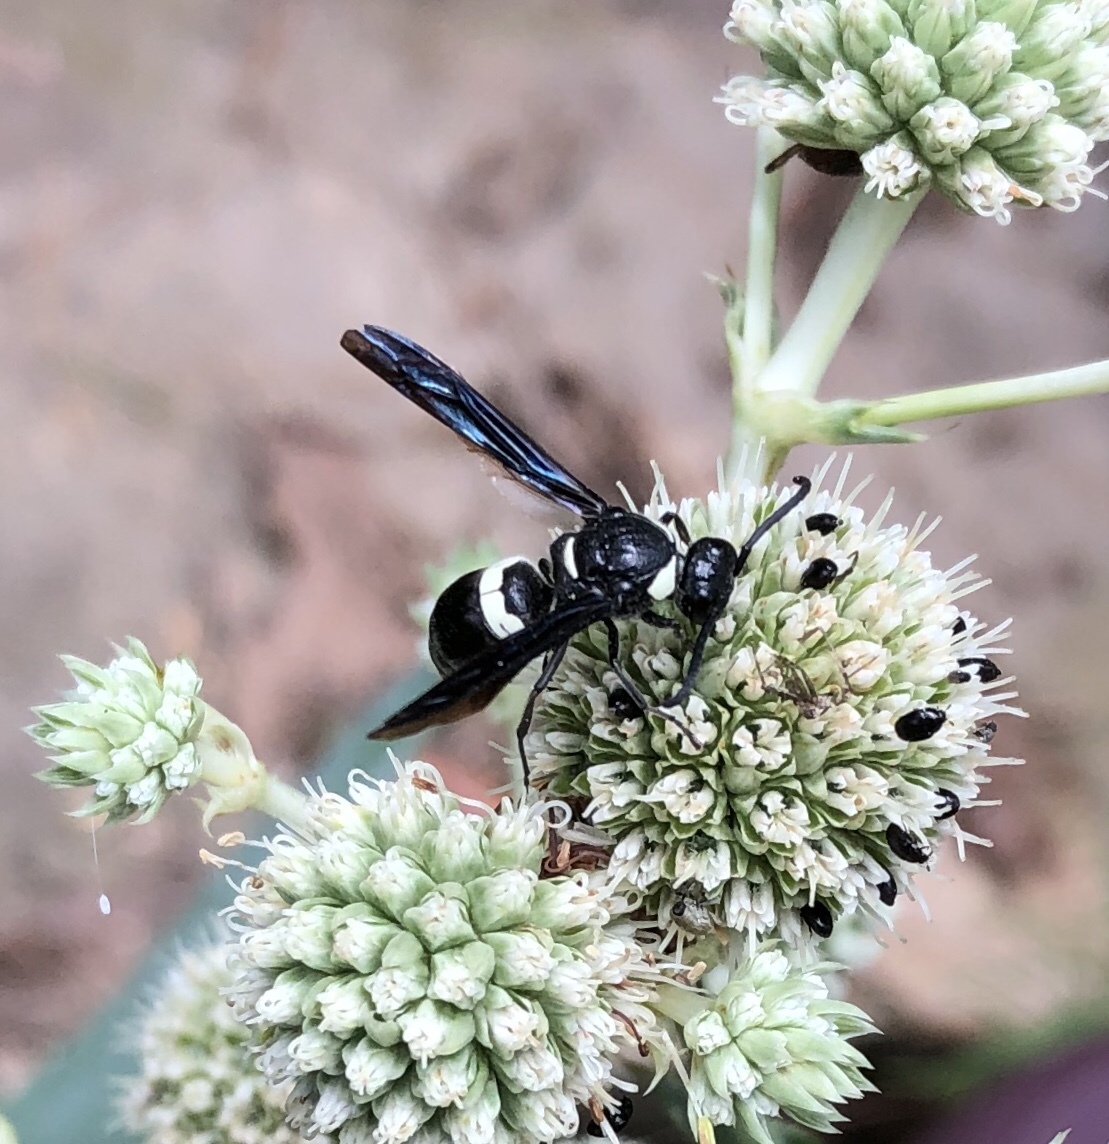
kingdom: Animalia
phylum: Arthropoda
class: Insecta
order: Hymenoptera
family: Eumenidae
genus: Monobia
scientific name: Monobia quadridens
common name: Four-toothed mason wasp
